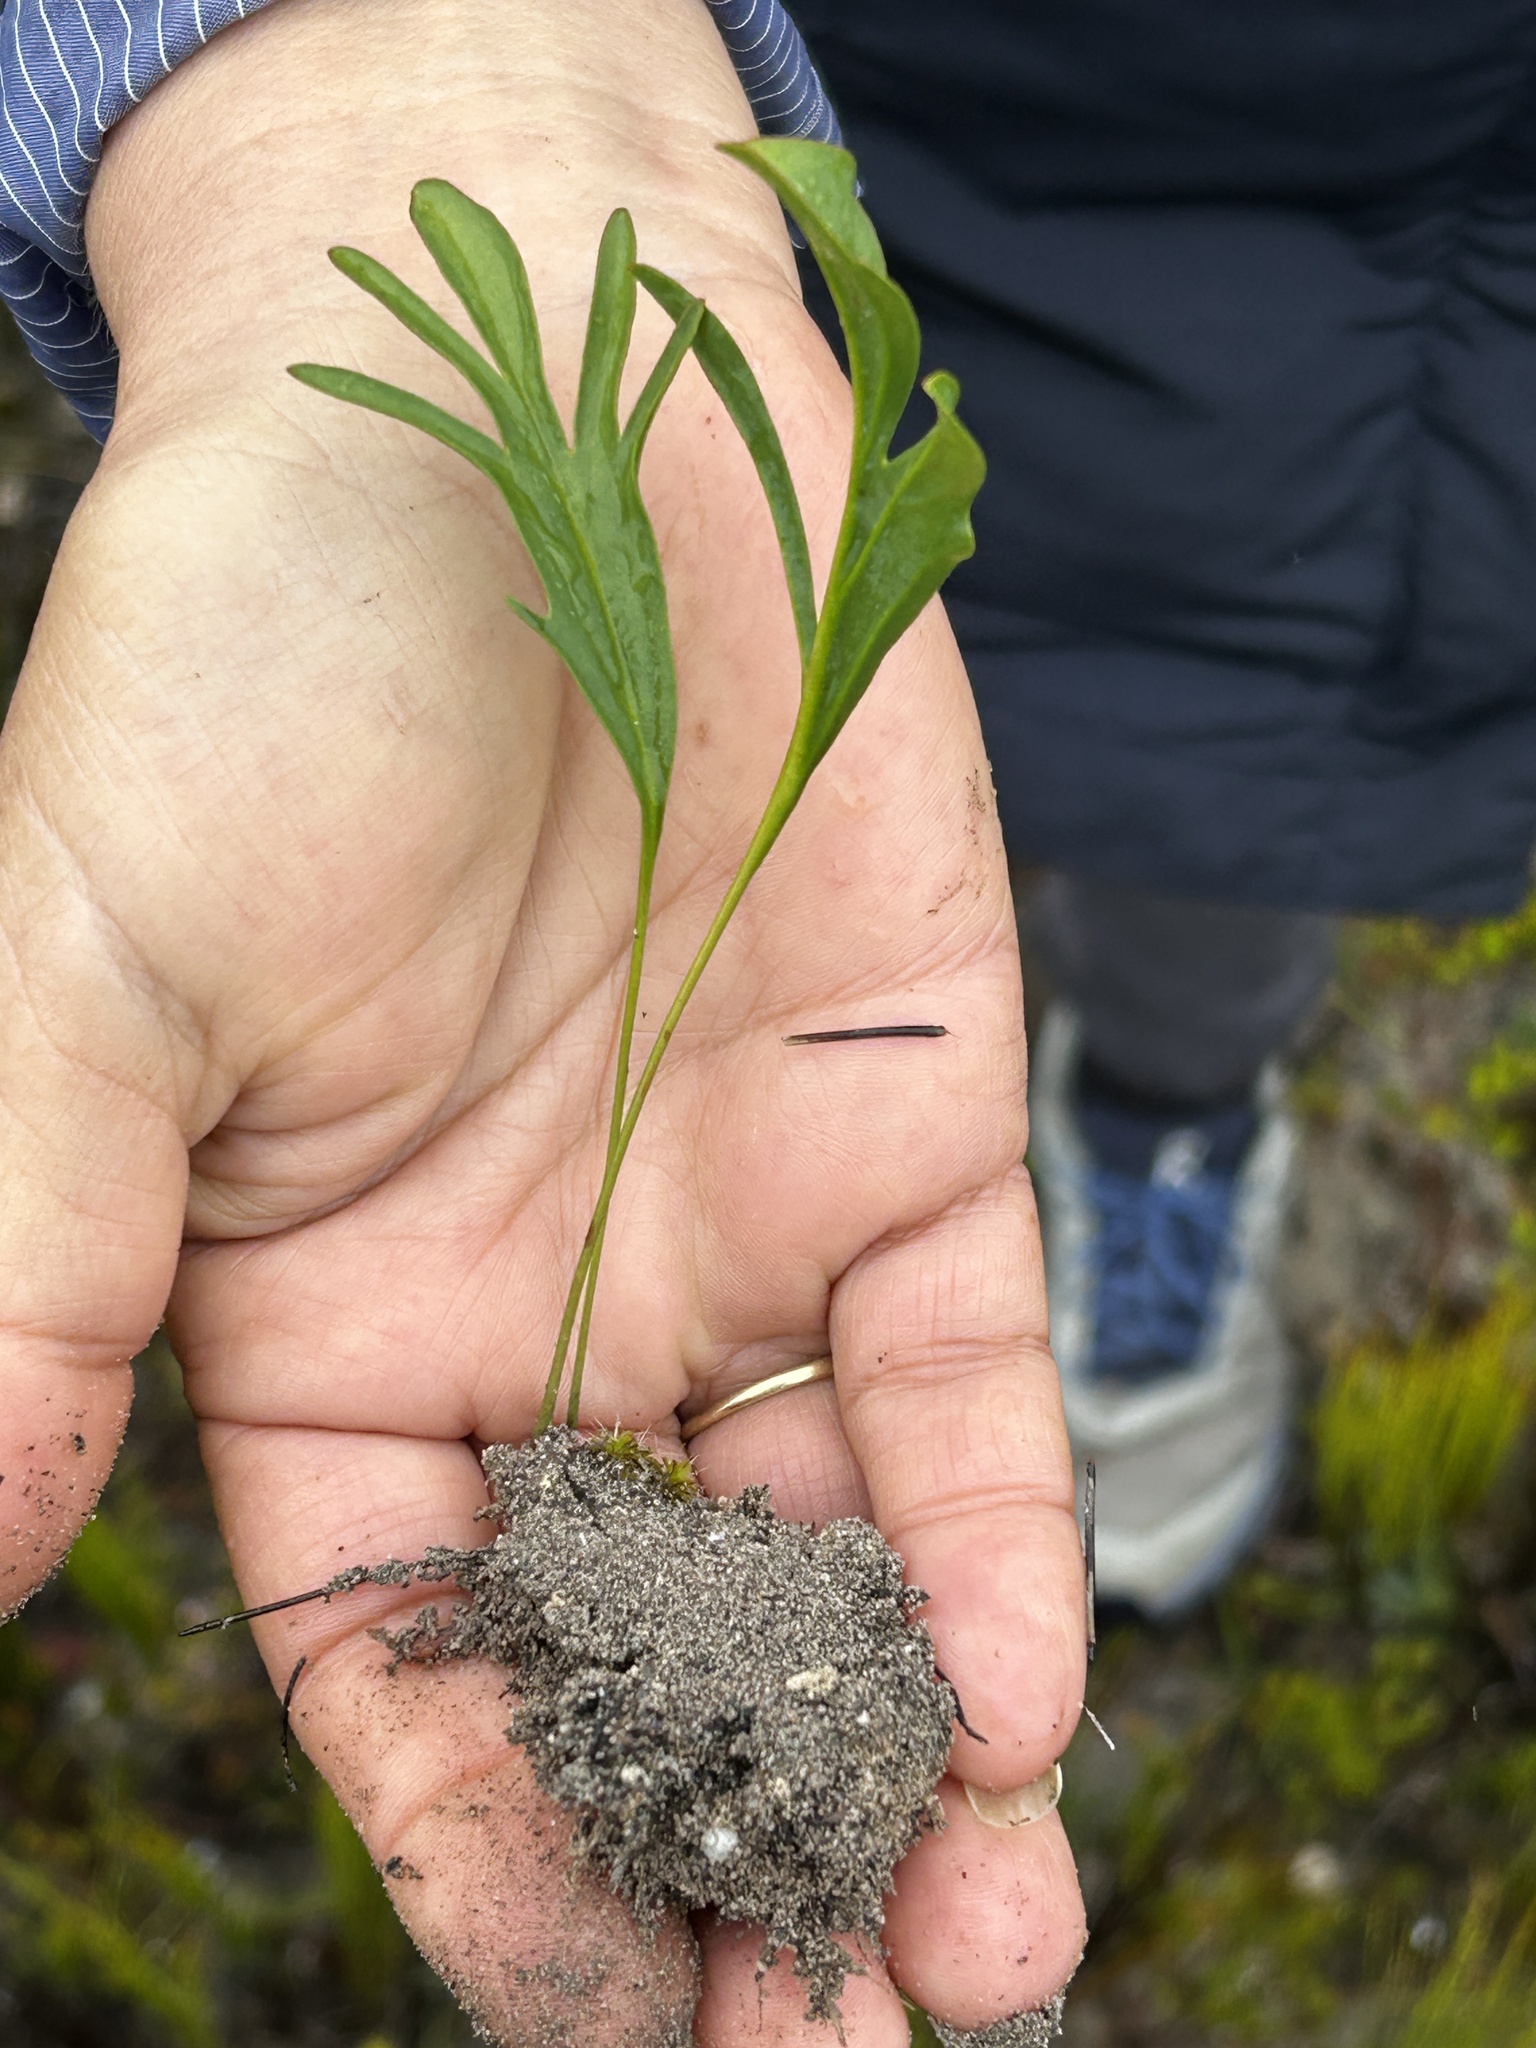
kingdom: Plantae
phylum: Tracheophyta
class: Magnoliopsida
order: Geraniales
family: Geraniaceae
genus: Pelargonium
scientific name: Pelargonium dipetalum
